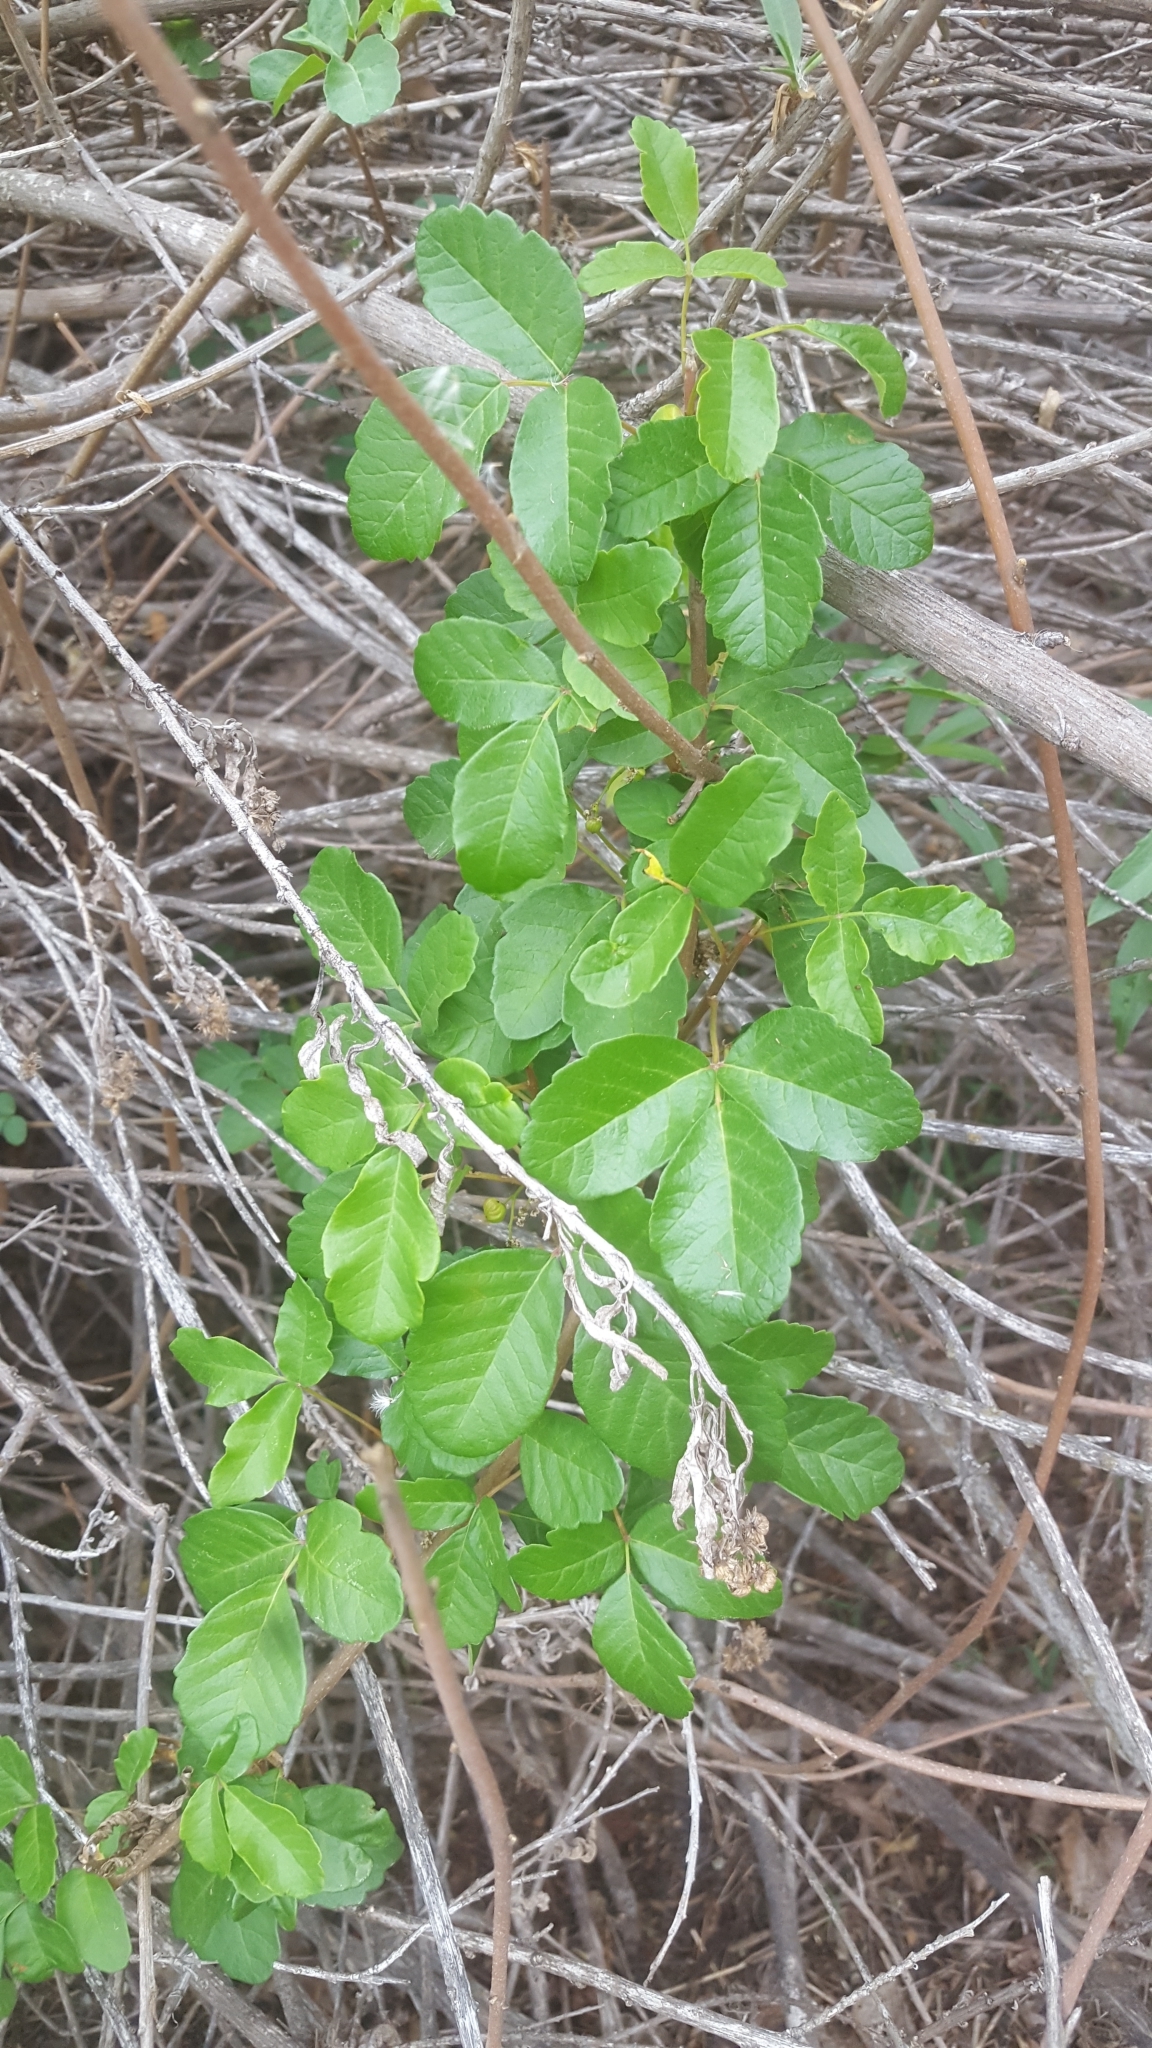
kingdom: Plantae
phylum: Tracheophyta
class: Magnoliopsida
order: Sapindales
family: Anacardiaceae
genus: Toxicodendron
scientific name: Toxicodendron diversilobum
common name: Pacific poison-oak
